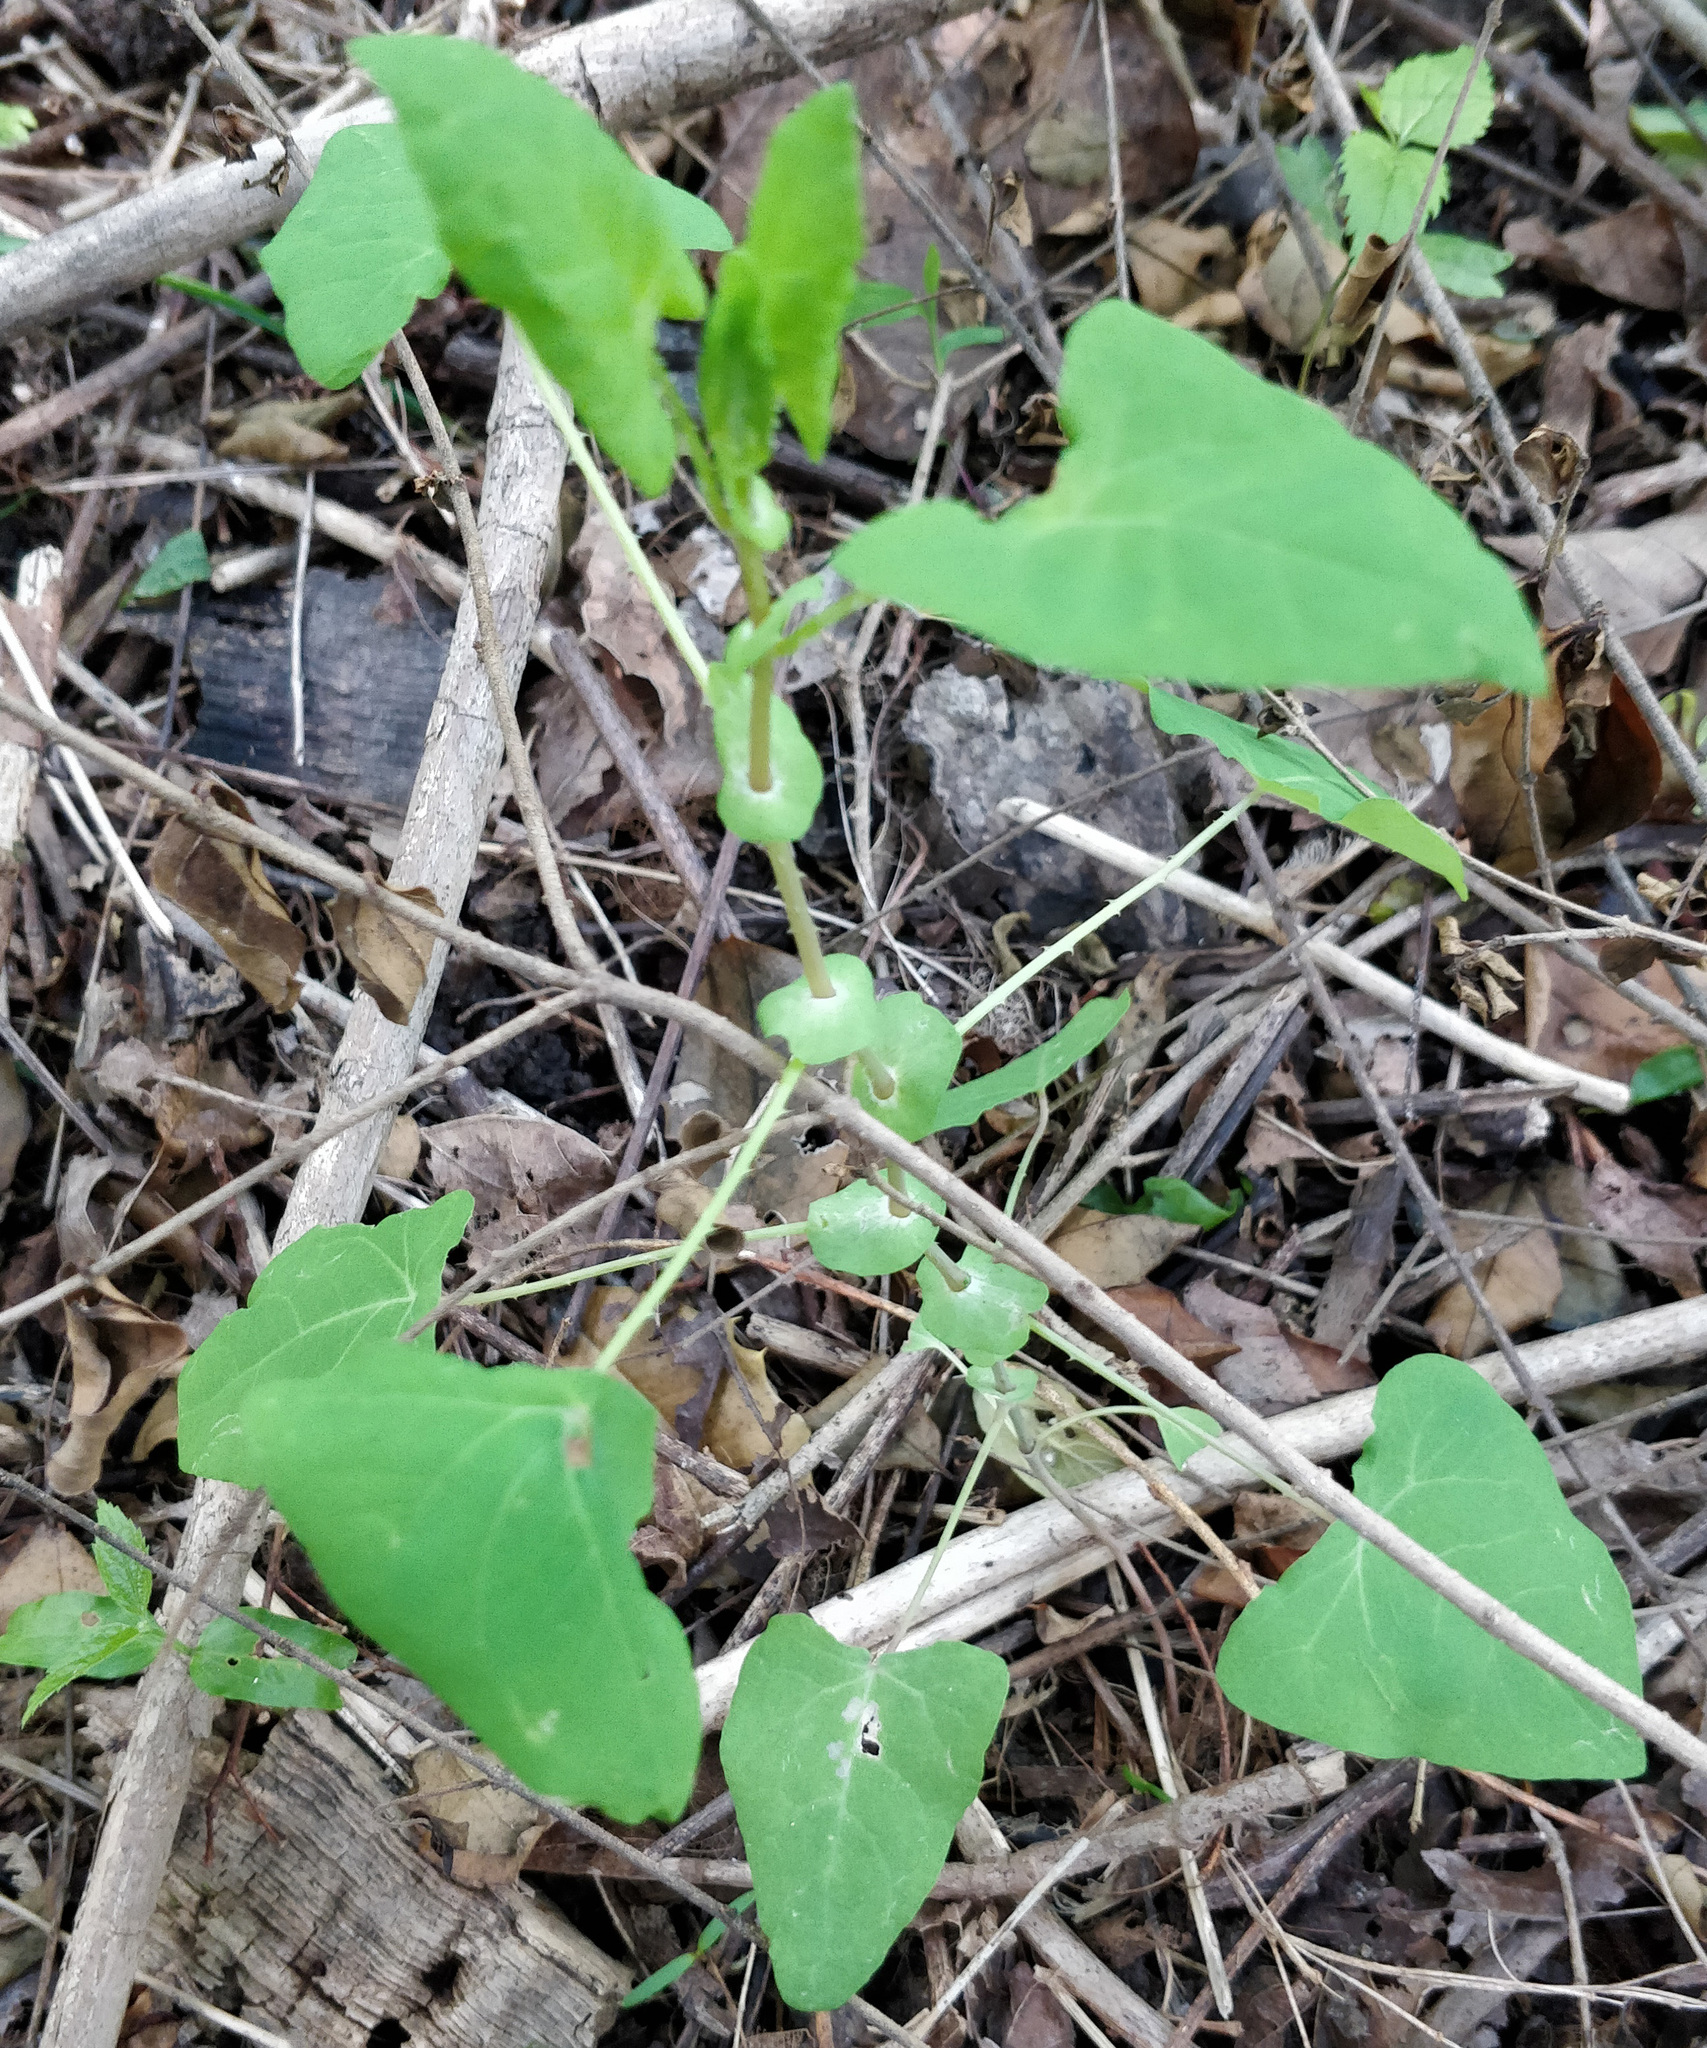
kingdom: Plantae
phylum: Tracheophyta
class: Magnoliopsida
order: Caryophyllales
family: Polygonaceae
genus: Persicaria
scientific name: Persicaria perfoliata
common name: Asiatic tearthumb
